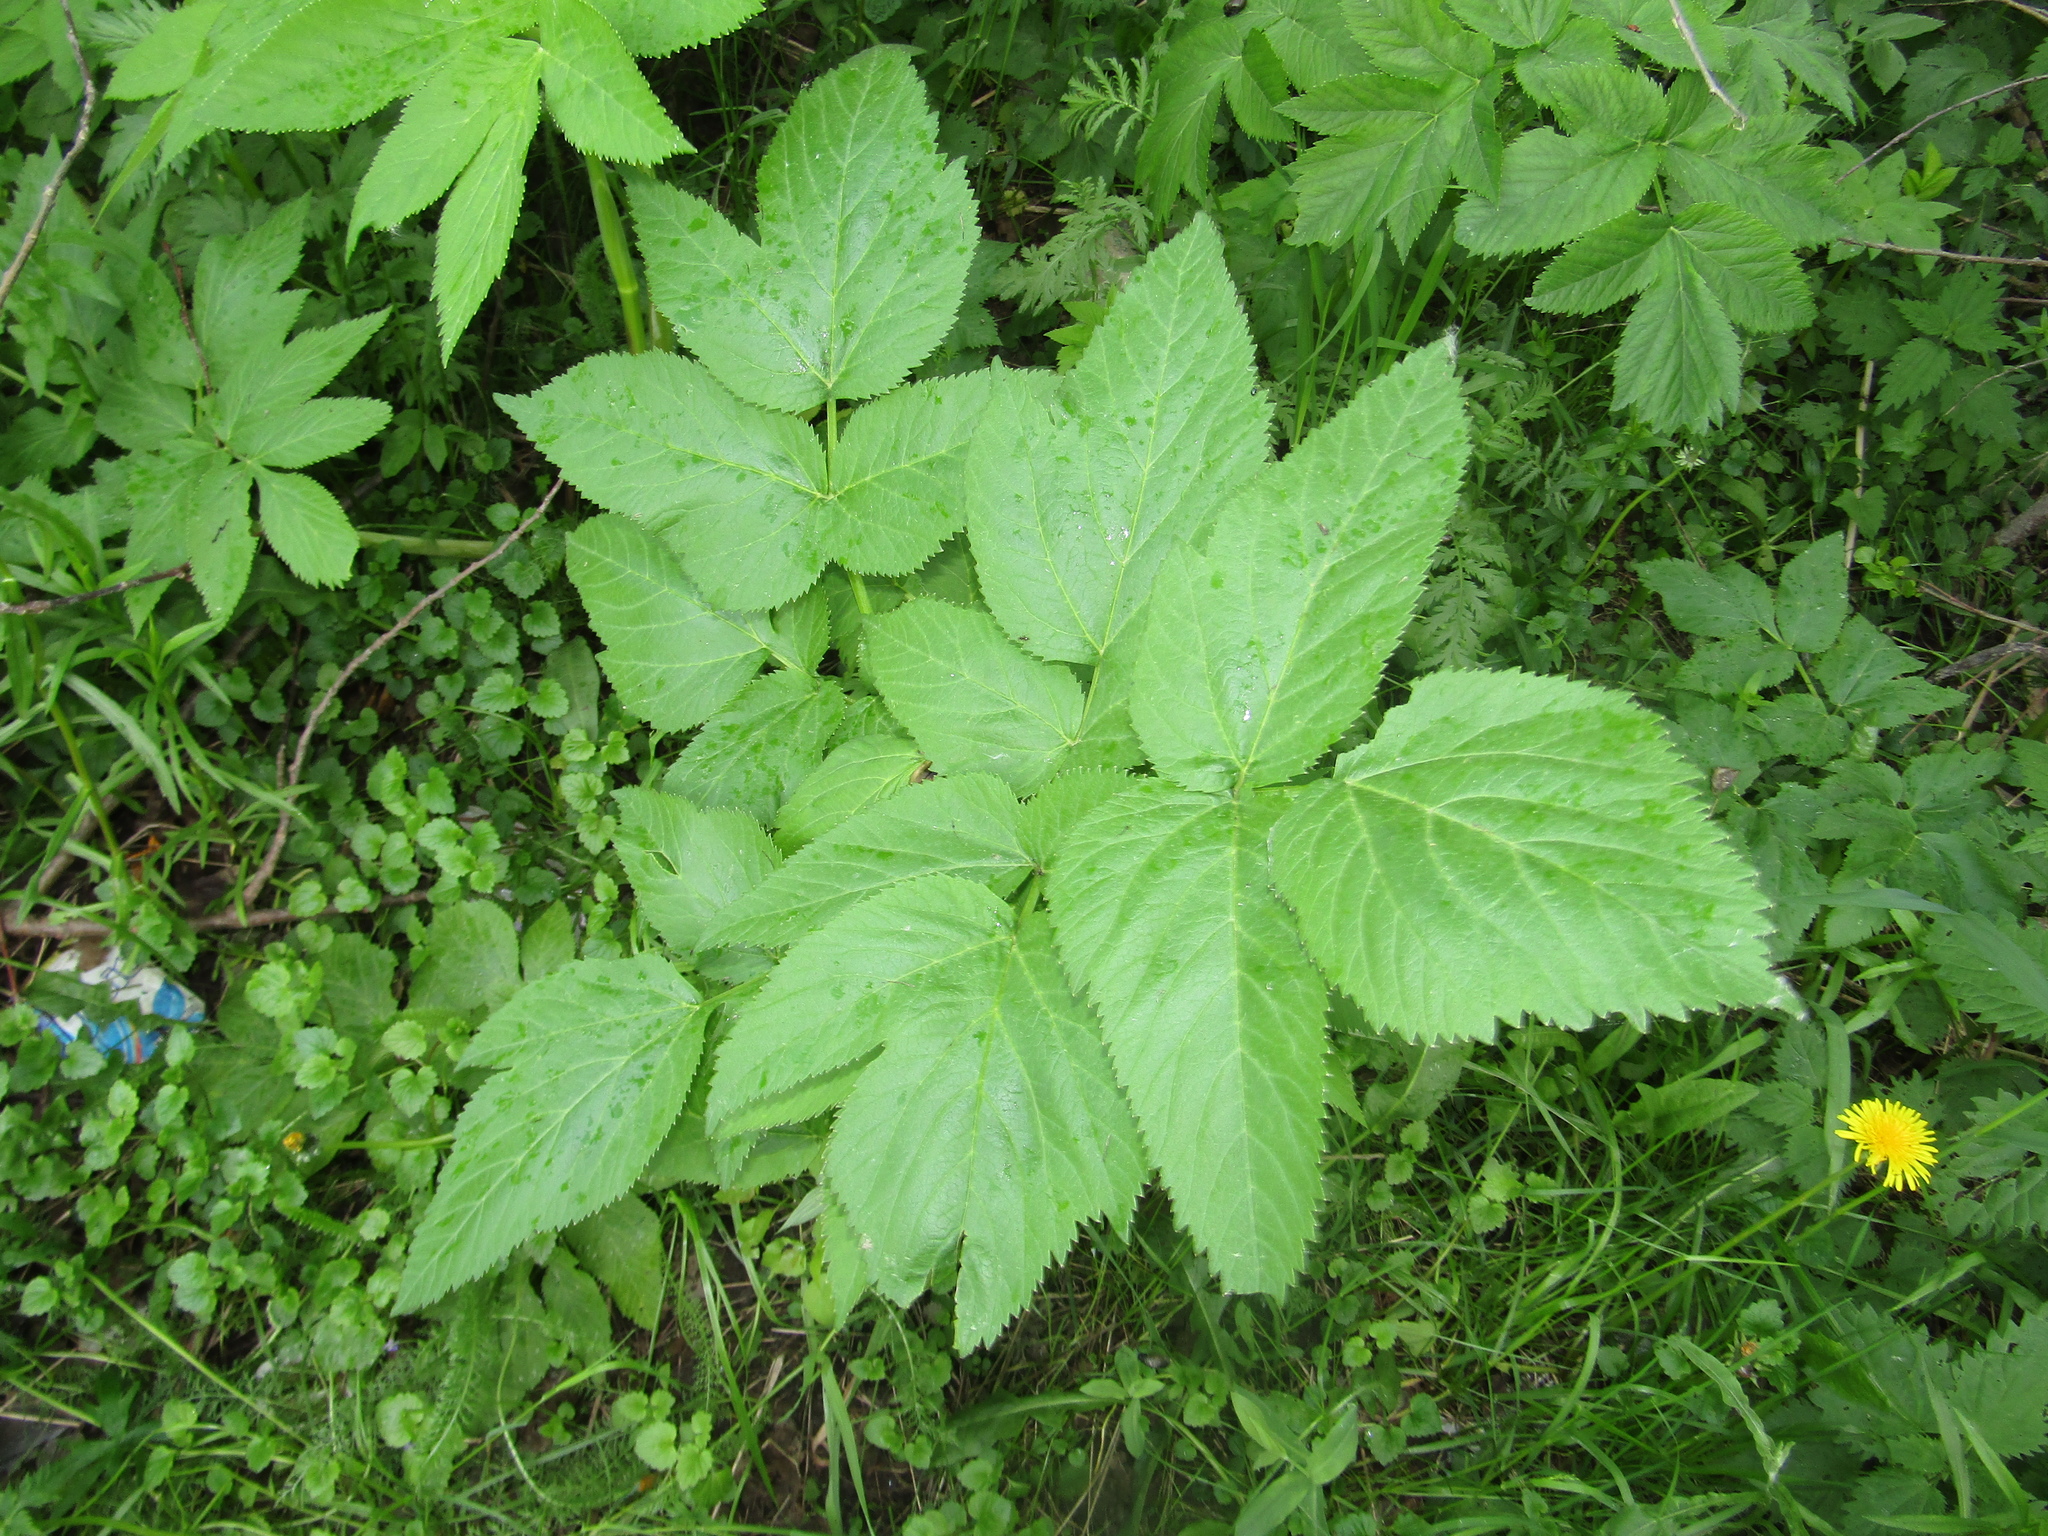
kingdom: Plantae
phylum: Tracheophyta
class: Magnoliopsida
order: Apiales
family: Apiaceae
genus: Angelica
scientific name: Angelica archangelica
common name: Garden angelica
